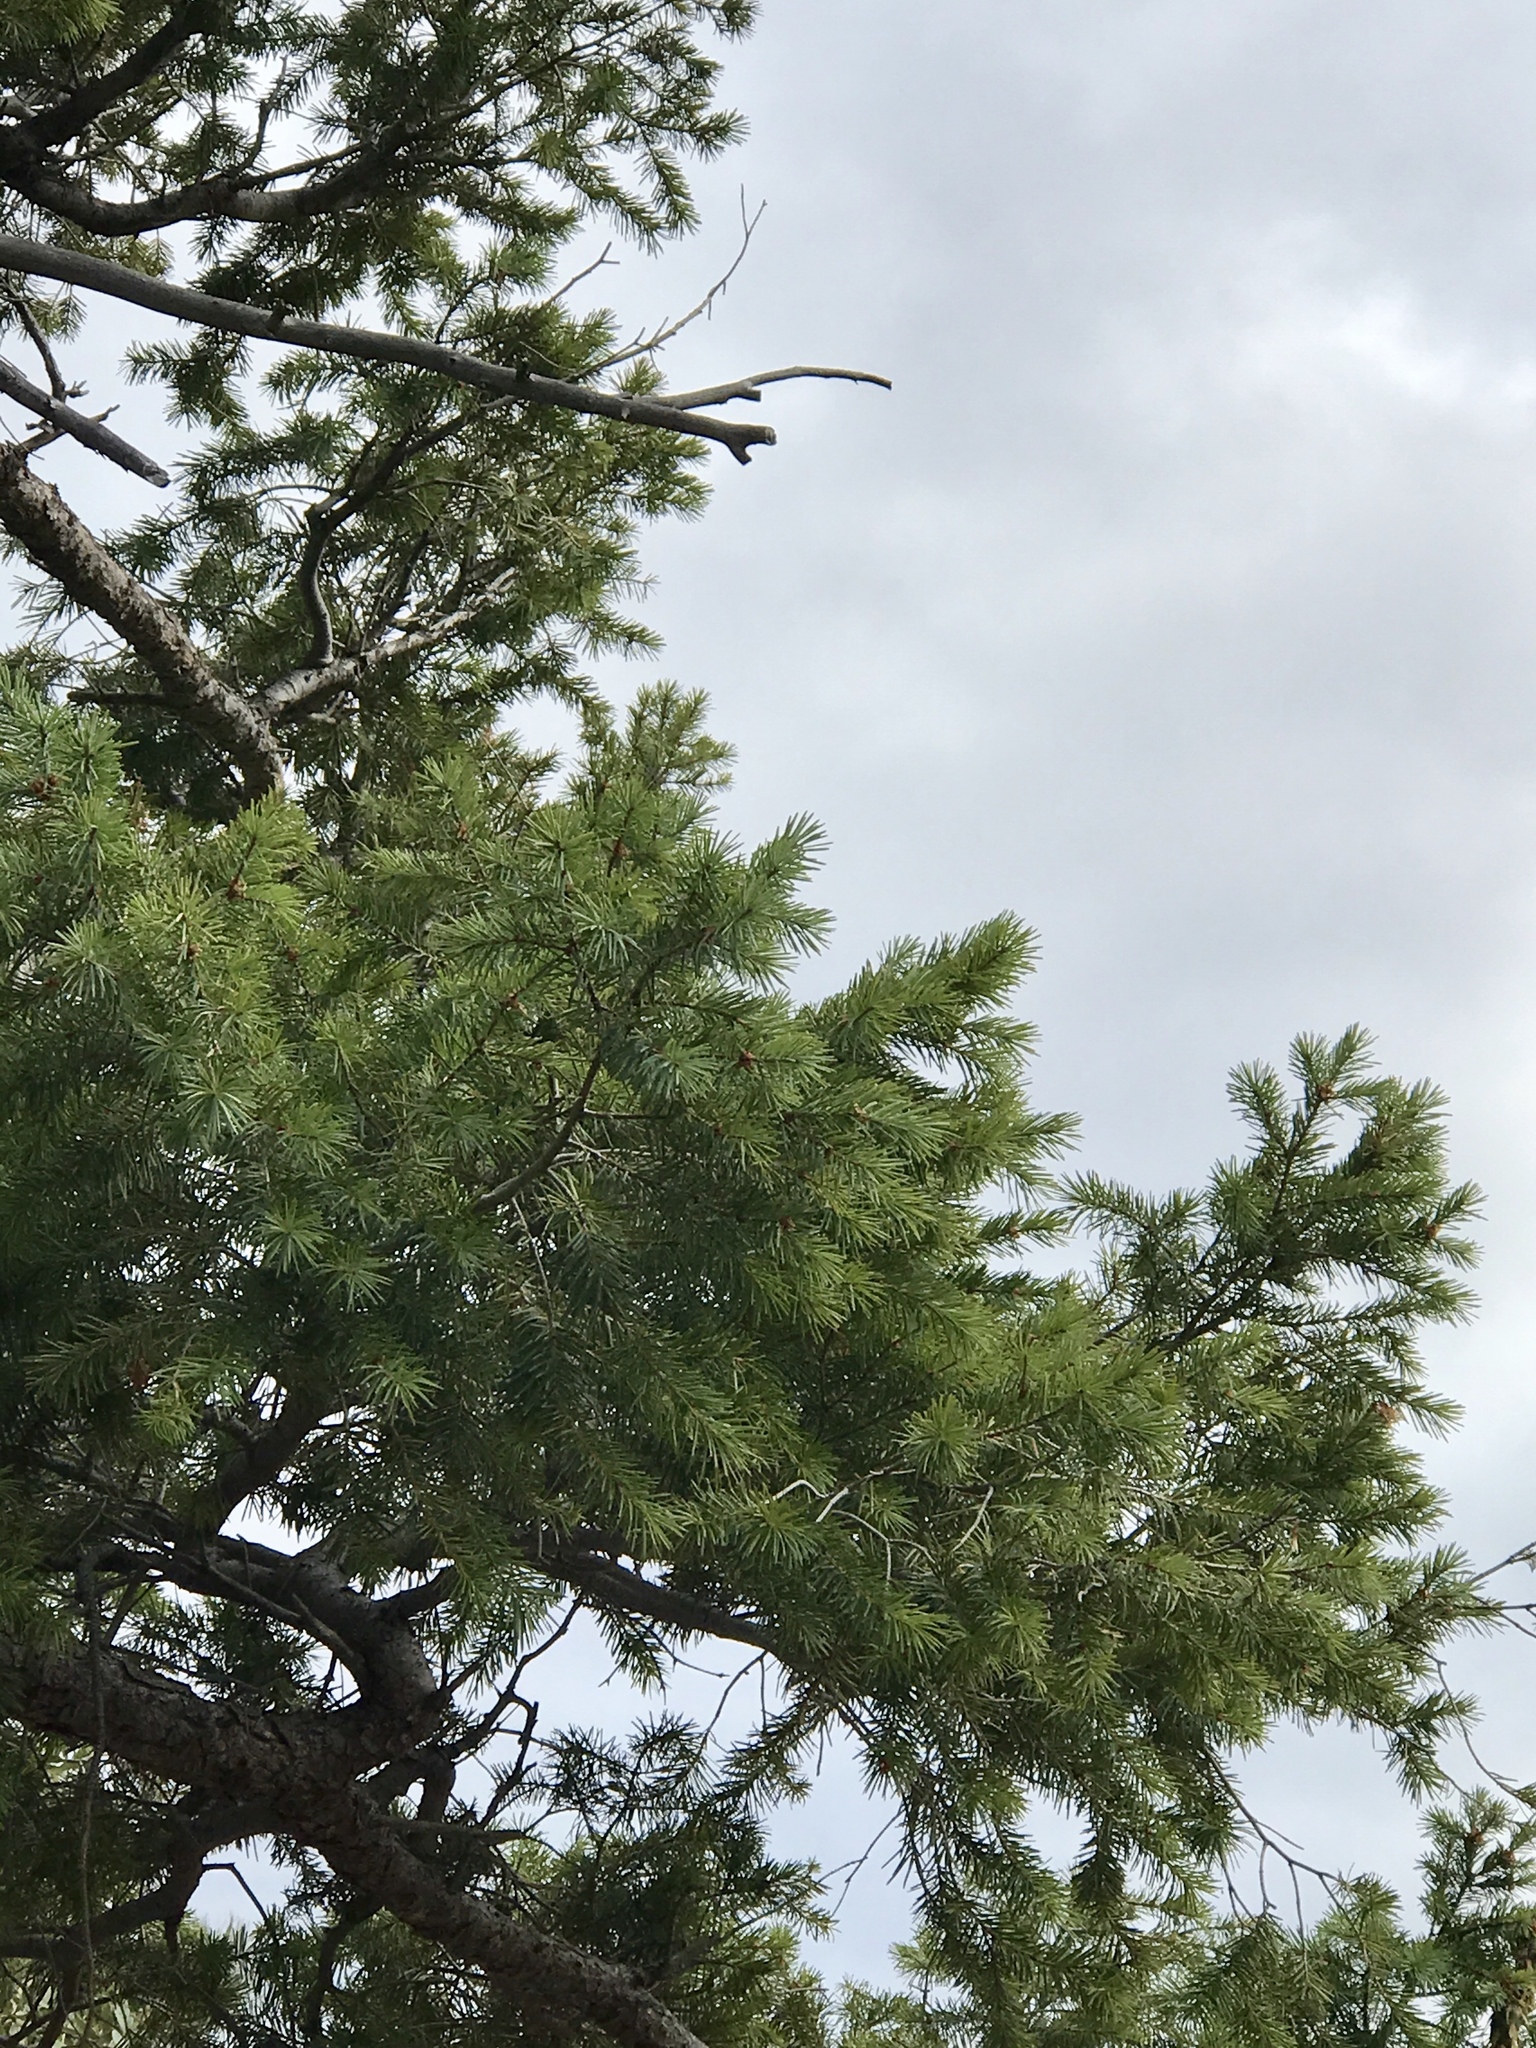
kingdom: Plantae
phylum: Tracheophyta
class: Pinopsida
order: Pinales
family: Pinaceae
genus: Pseudotsuga
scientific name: Pseudotsuga menziesii
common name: Douglas fir
